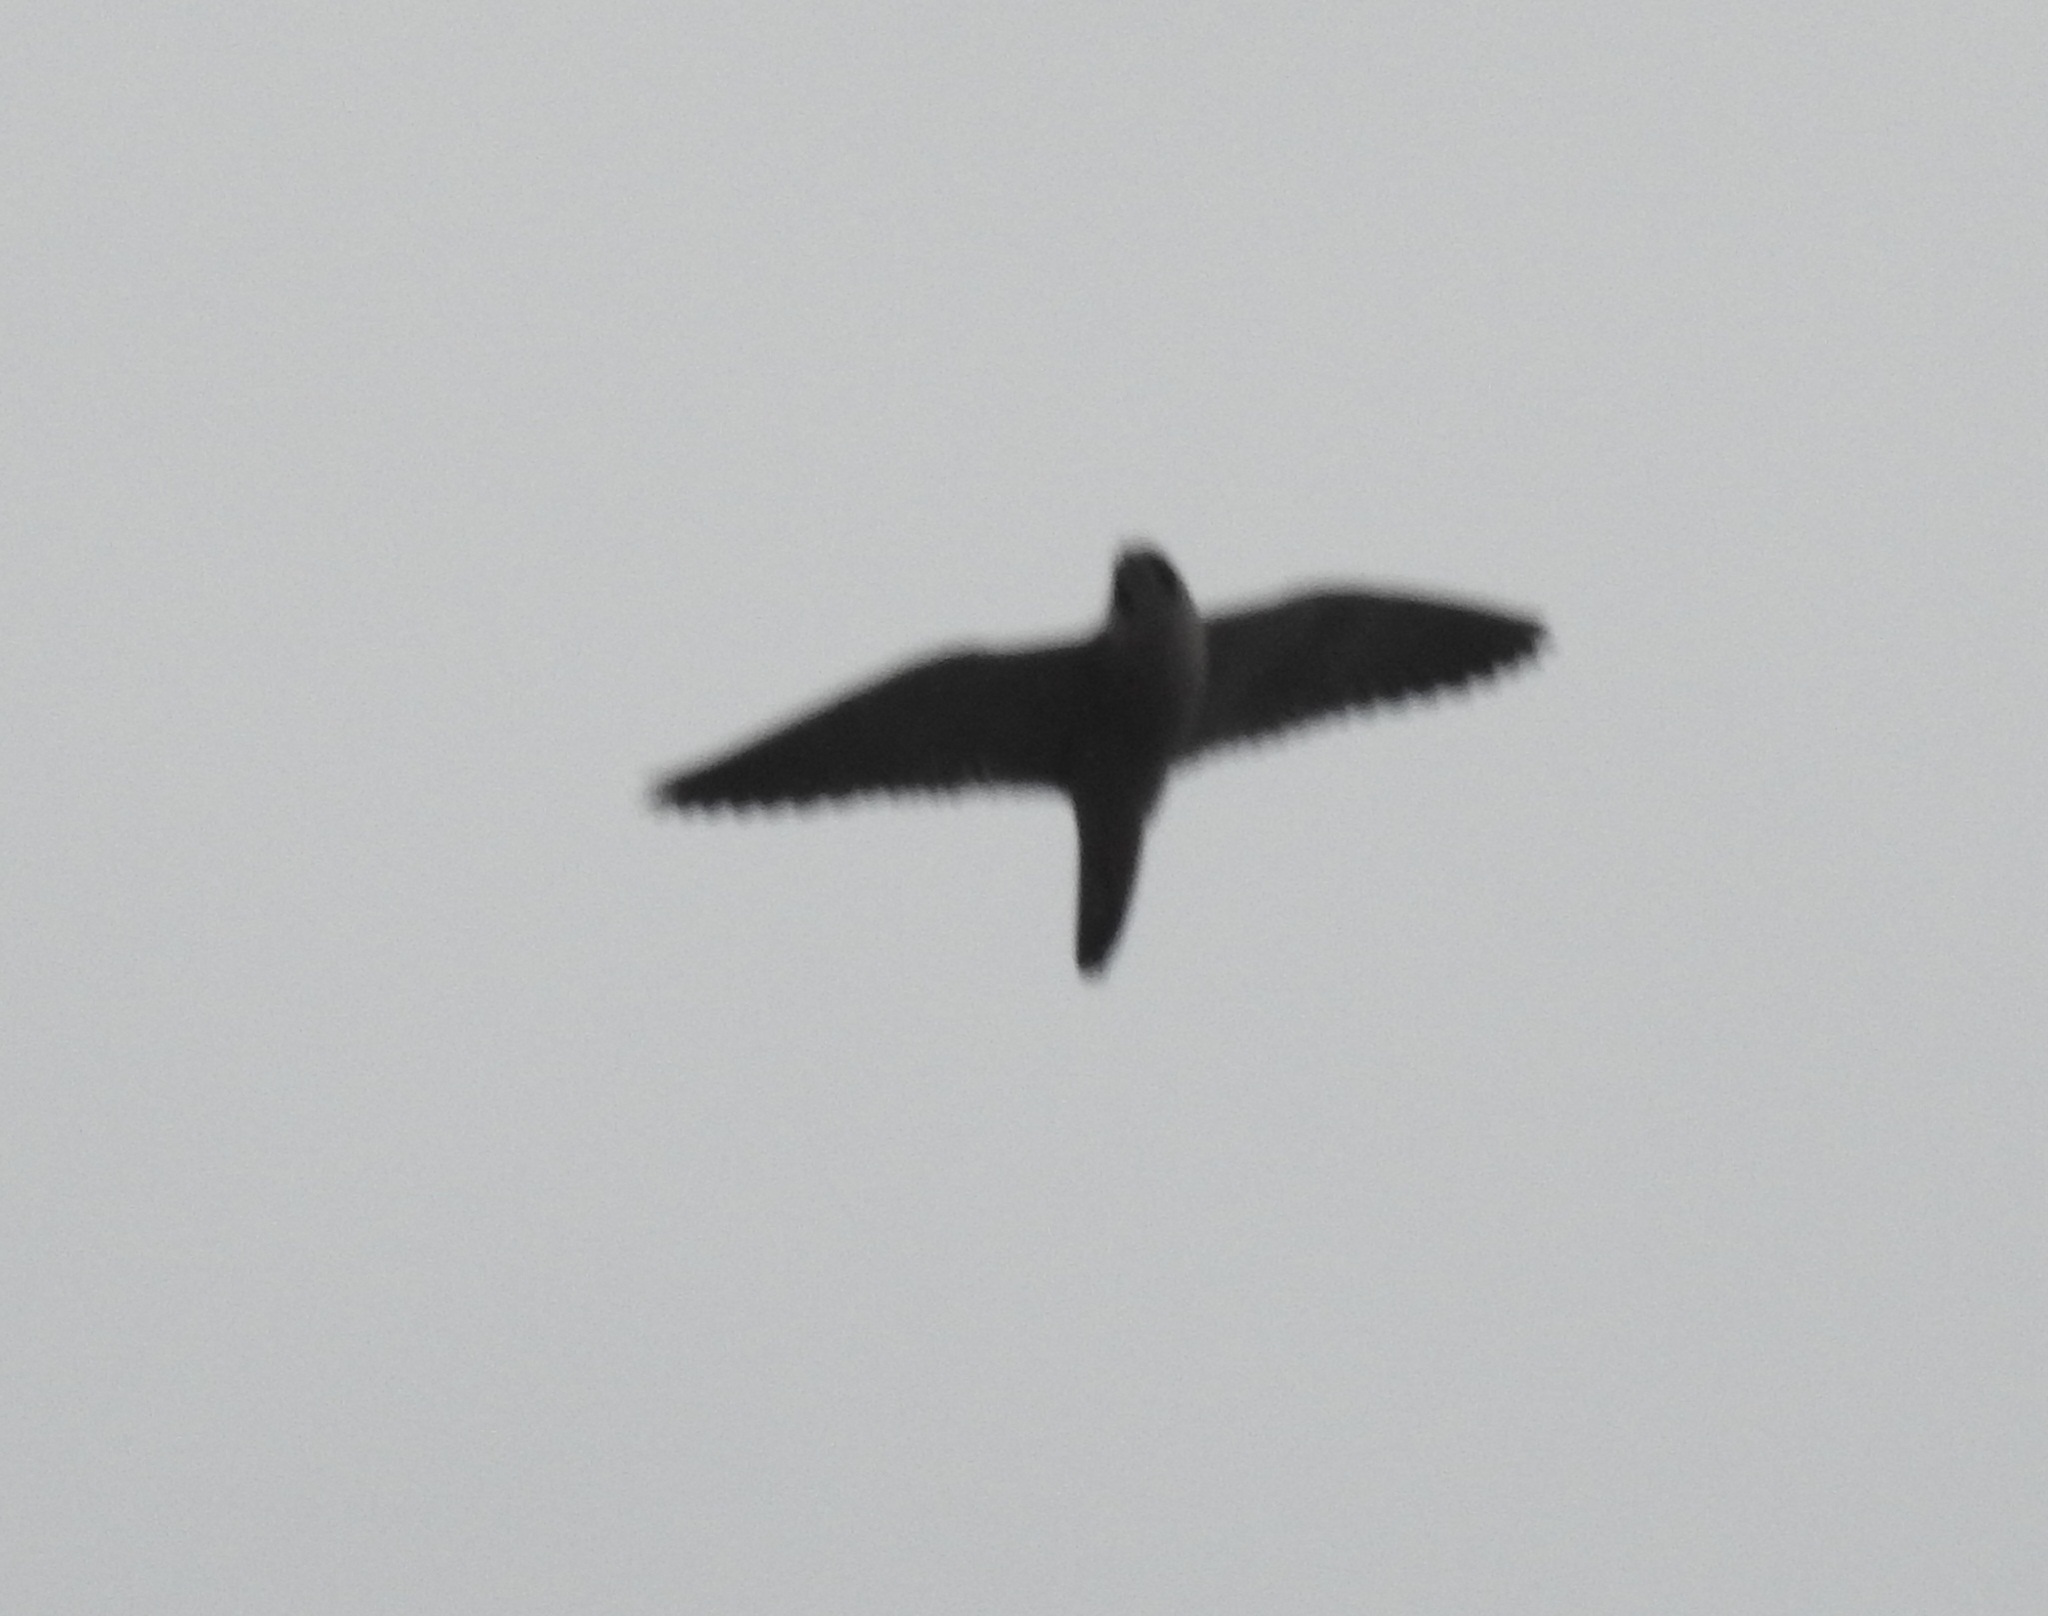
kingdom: Animalia
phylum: Chordata
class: Aves
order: Falconiformes
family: Falconidae
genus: Falco
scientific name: Falco peregrinus
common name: Peregrine falcon
